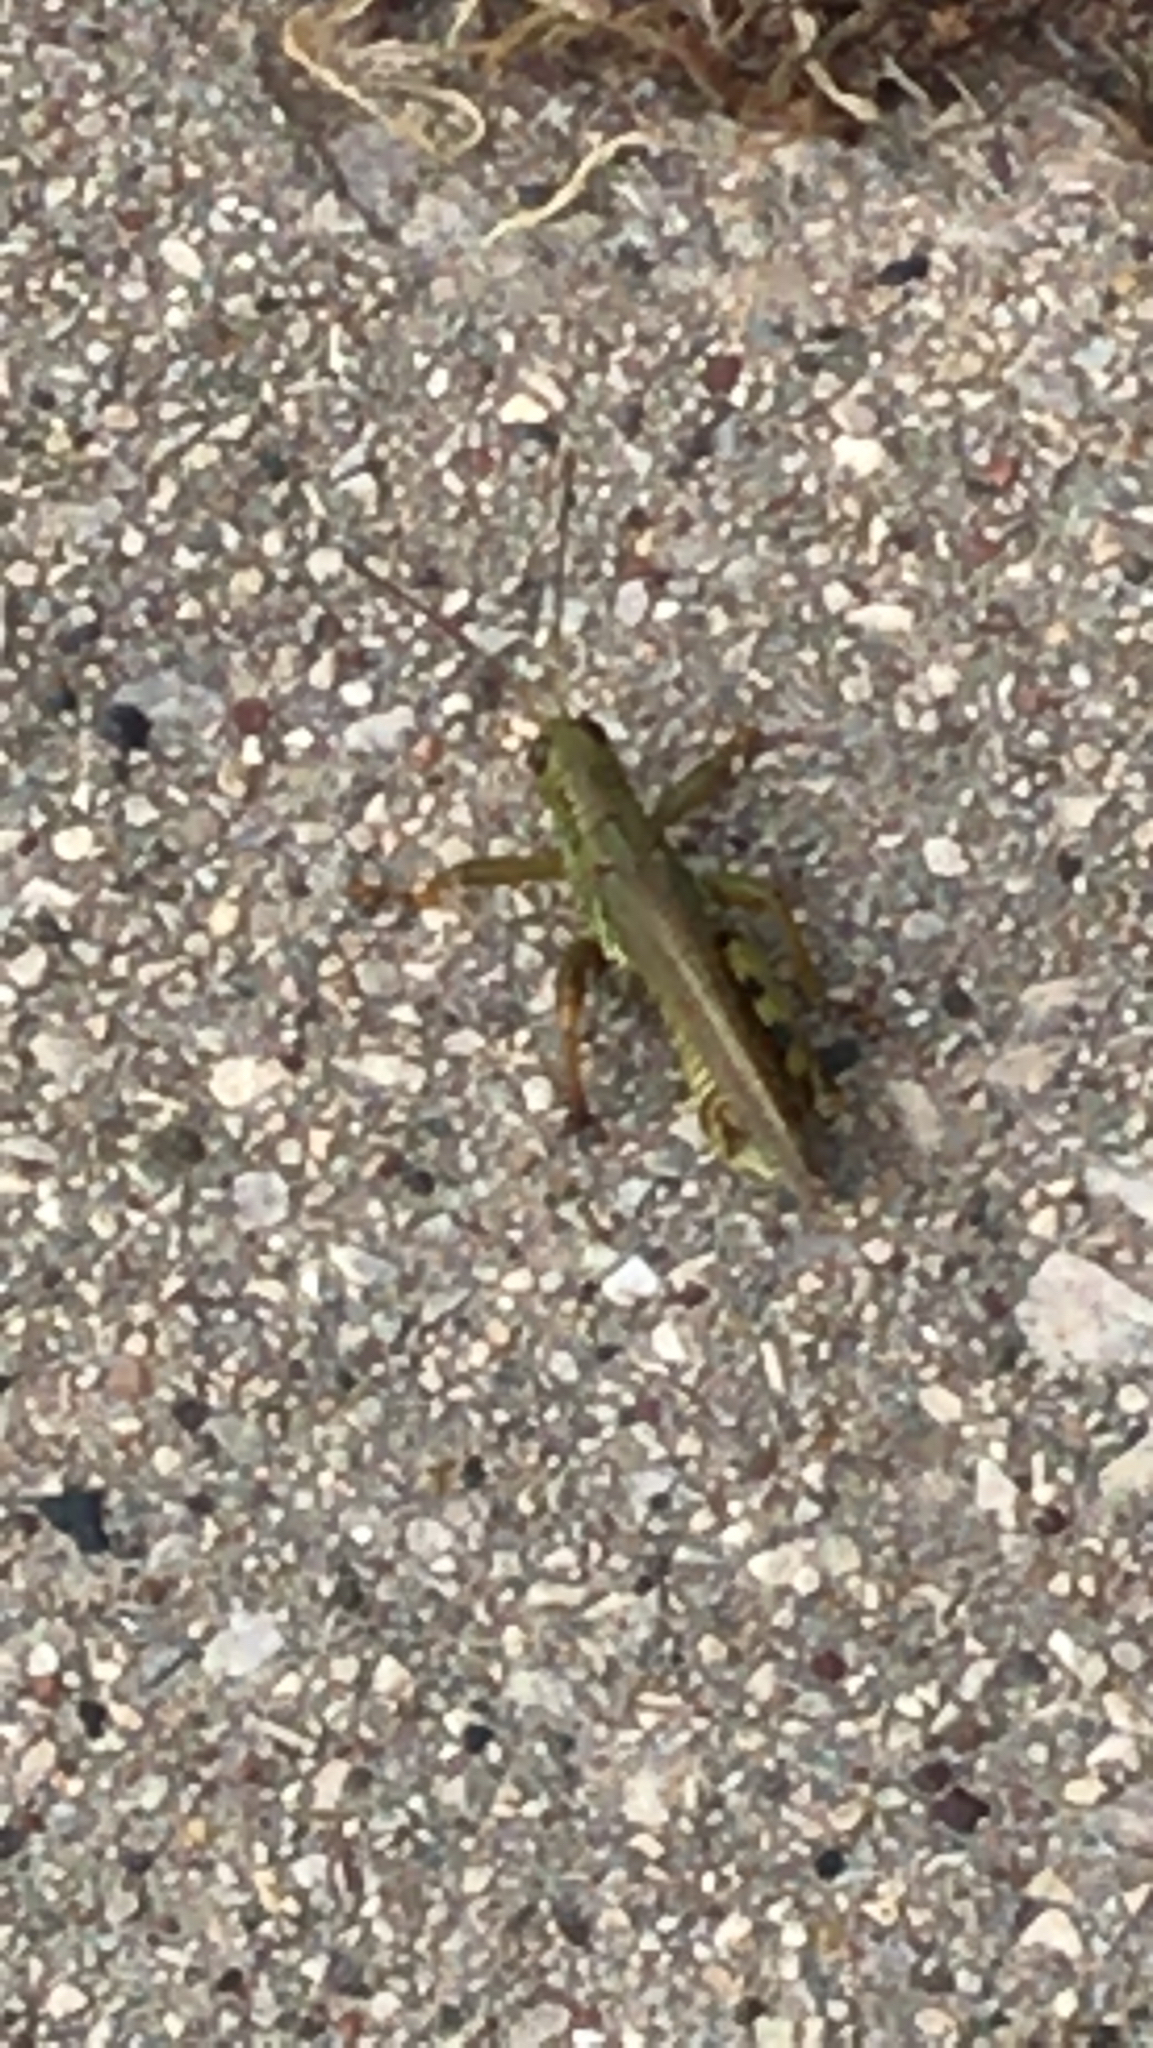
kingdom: Animalia
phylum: Arthropoda
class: Insecta
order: Orthoptera
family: Acrididae
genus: Melanoplus
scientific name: Melanoplus differentialis
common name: Differential grasshopper
